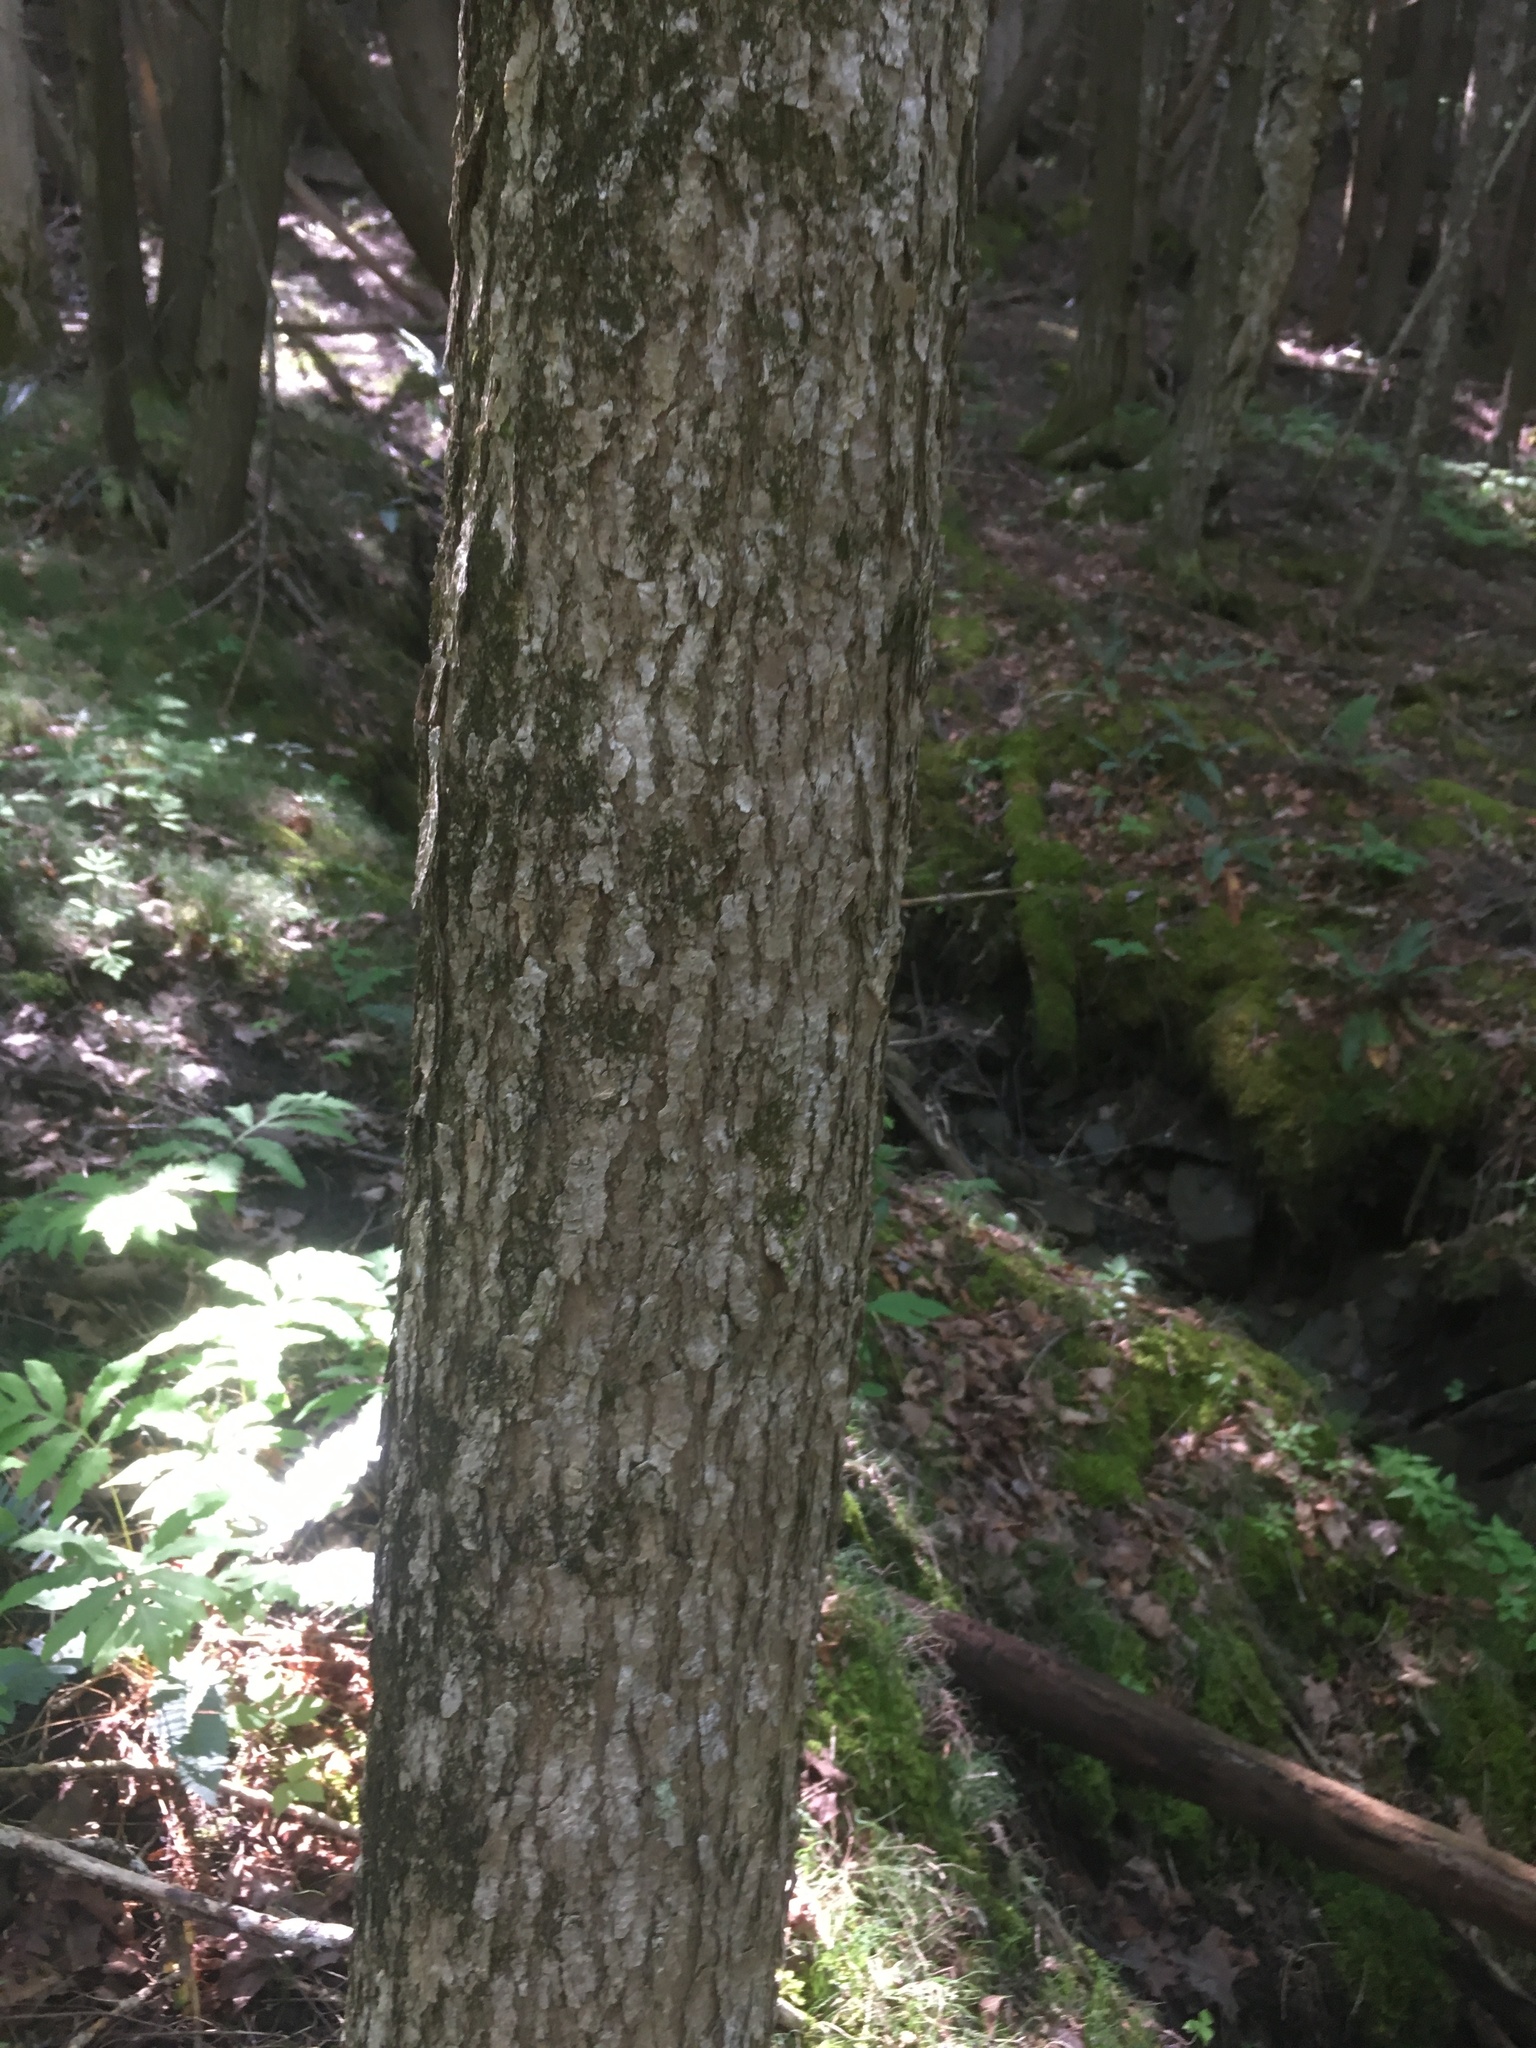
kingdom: Plantae
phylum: Tracheophyta
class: Magnoliopsida
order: Lamiales
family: Oleaceae
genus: Fraxinus
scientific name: Fraxinus nigra
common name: Black ash
